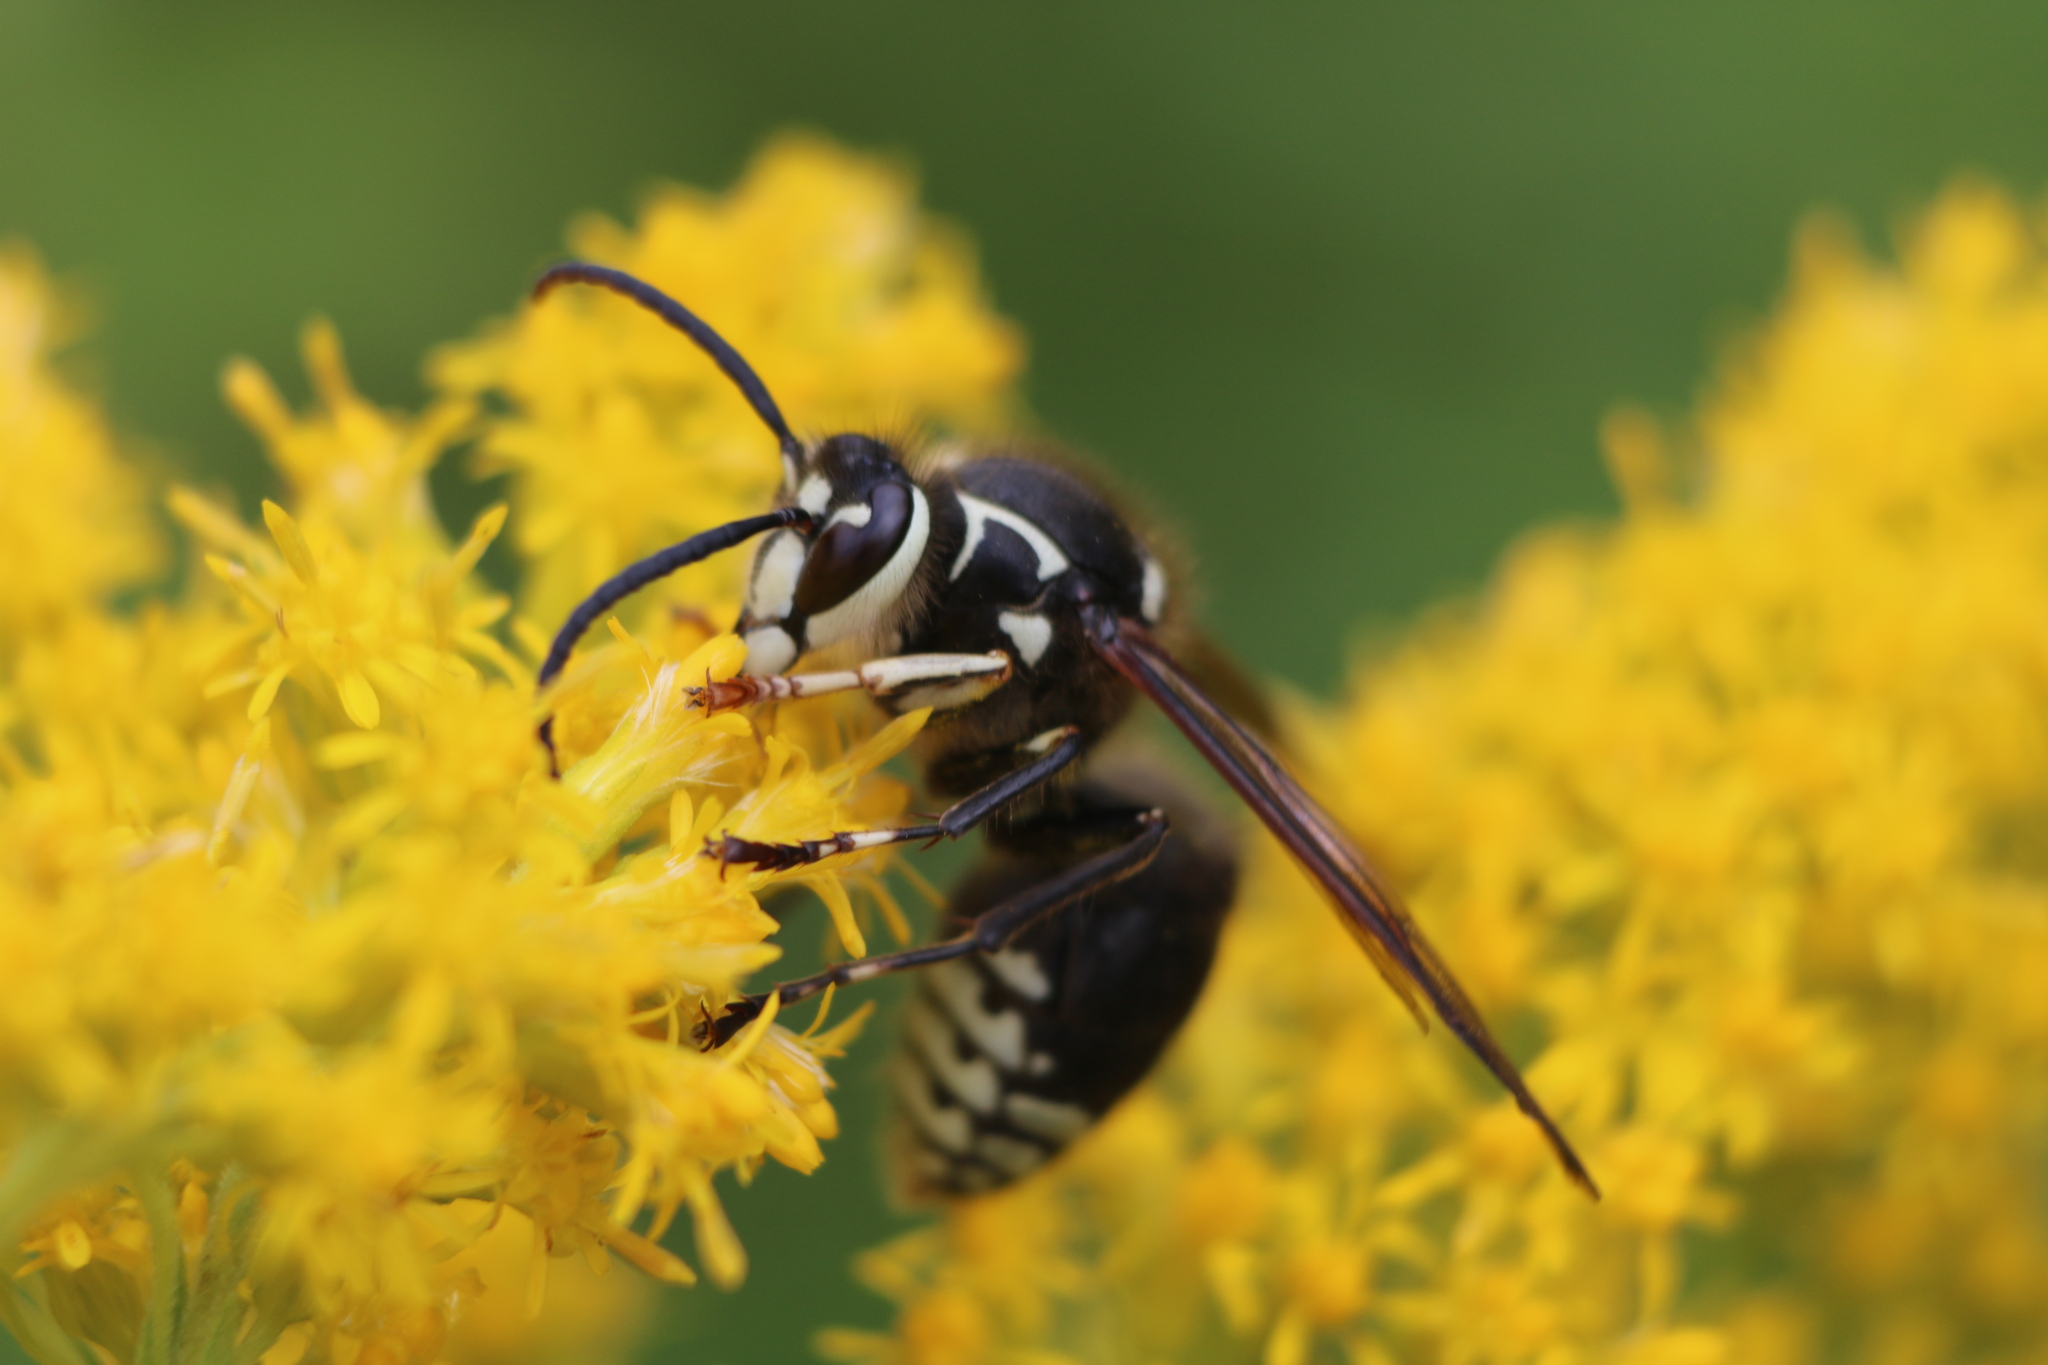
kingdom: Animalia
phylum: Arthropoda
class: Insecta
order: Hymenoptera
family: Vespidae
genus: Dolichovespula
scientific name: Dolichovespula maculata
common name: Bald-faced hornet
